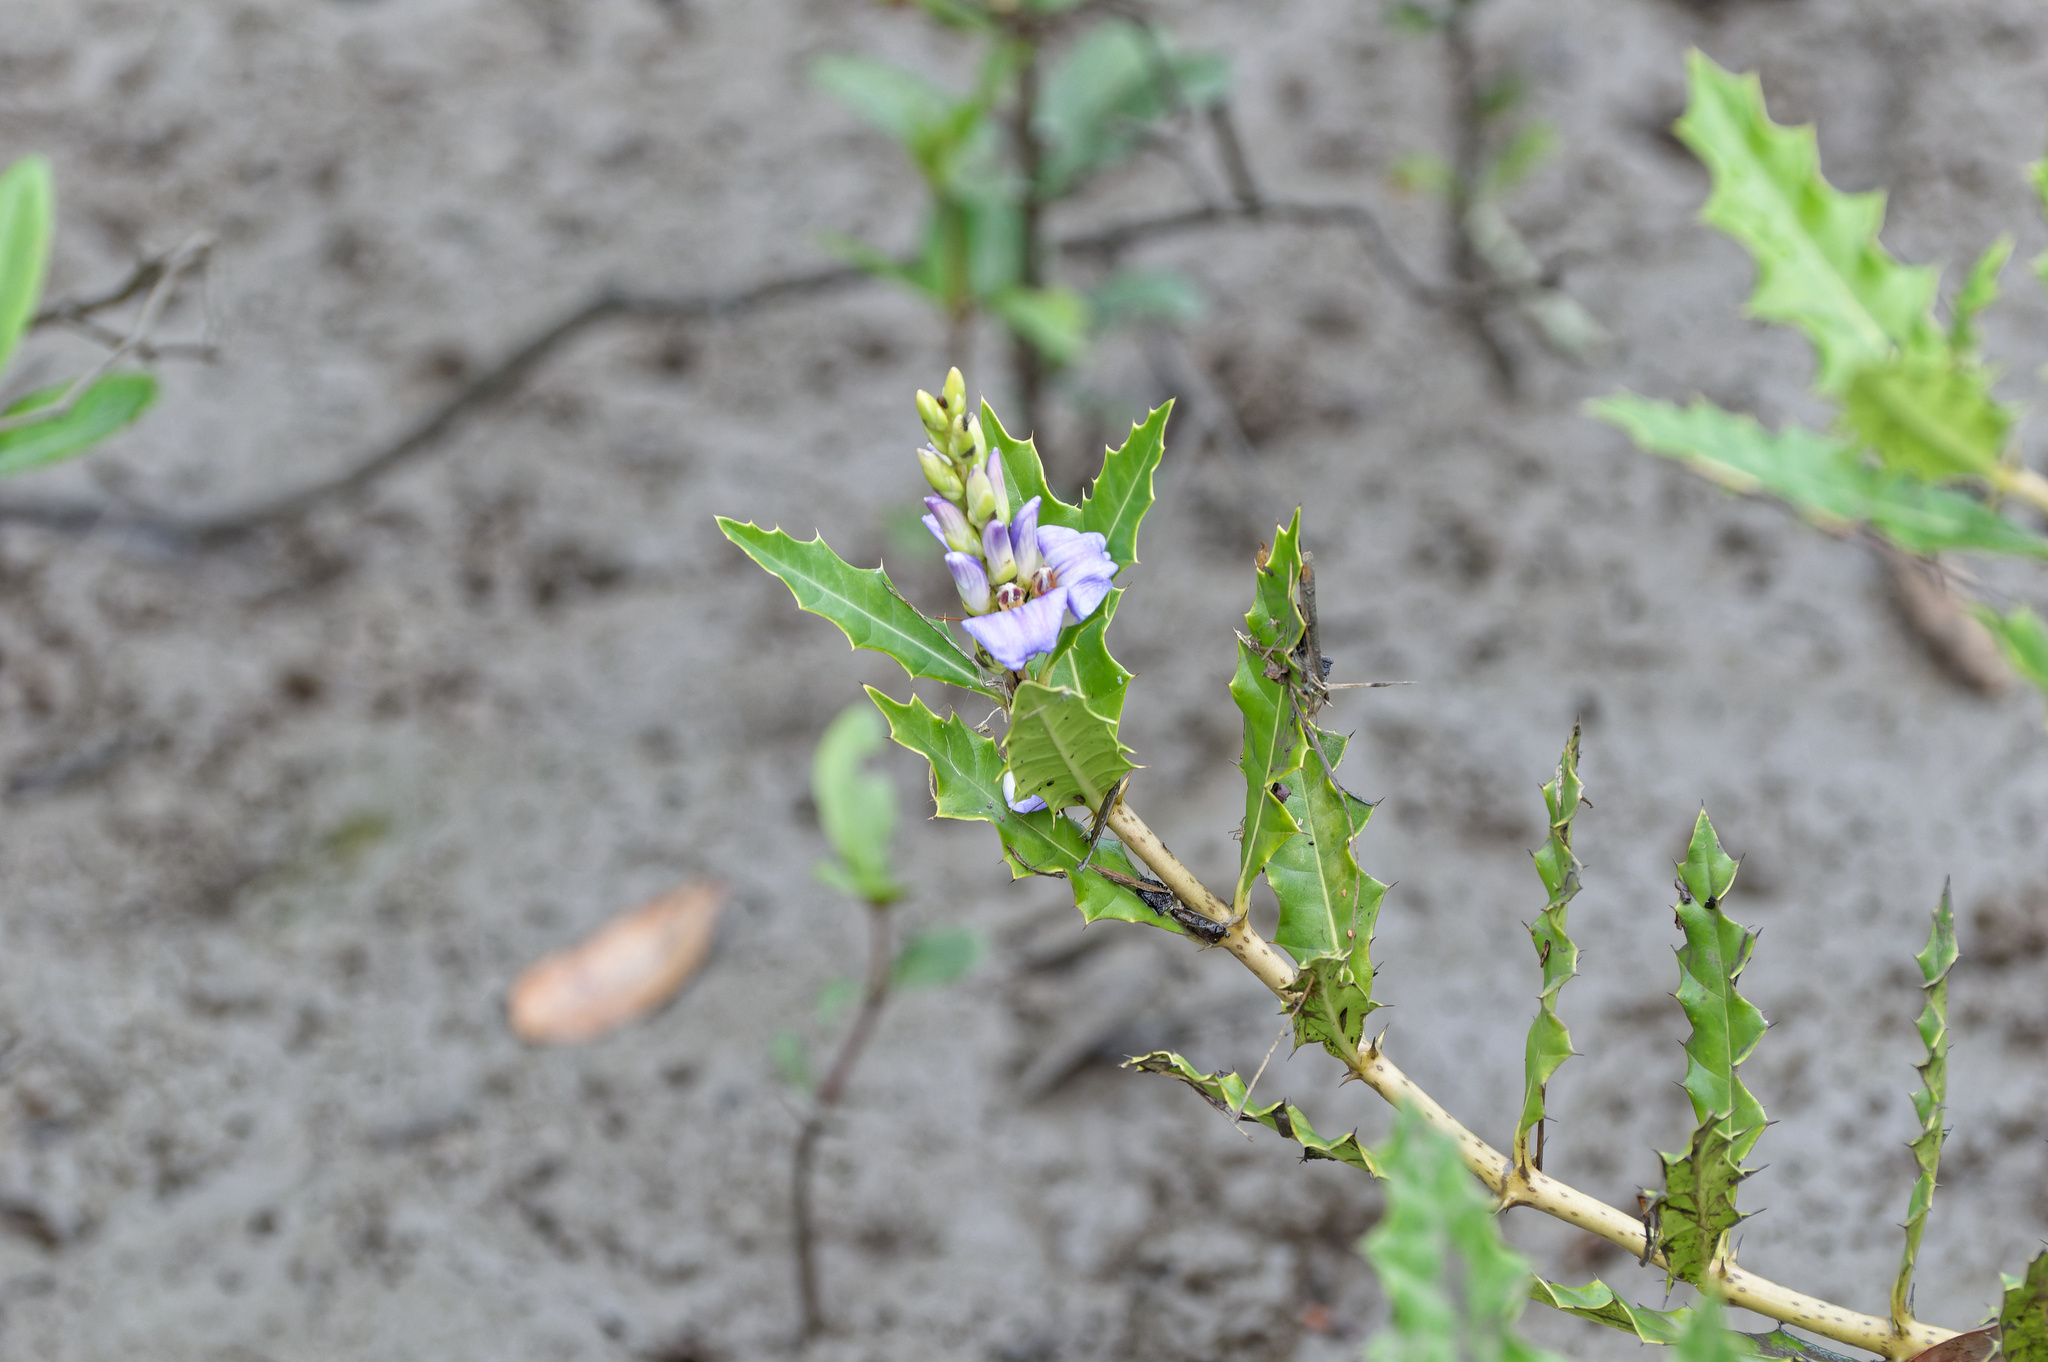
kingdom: Plantae
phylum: Tracheophyta
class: Magnoliopsida
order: Lamiales
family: Acanthaceae
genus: Acanthus
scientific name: Acanthus ilicifolius
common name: Holy mangrove
